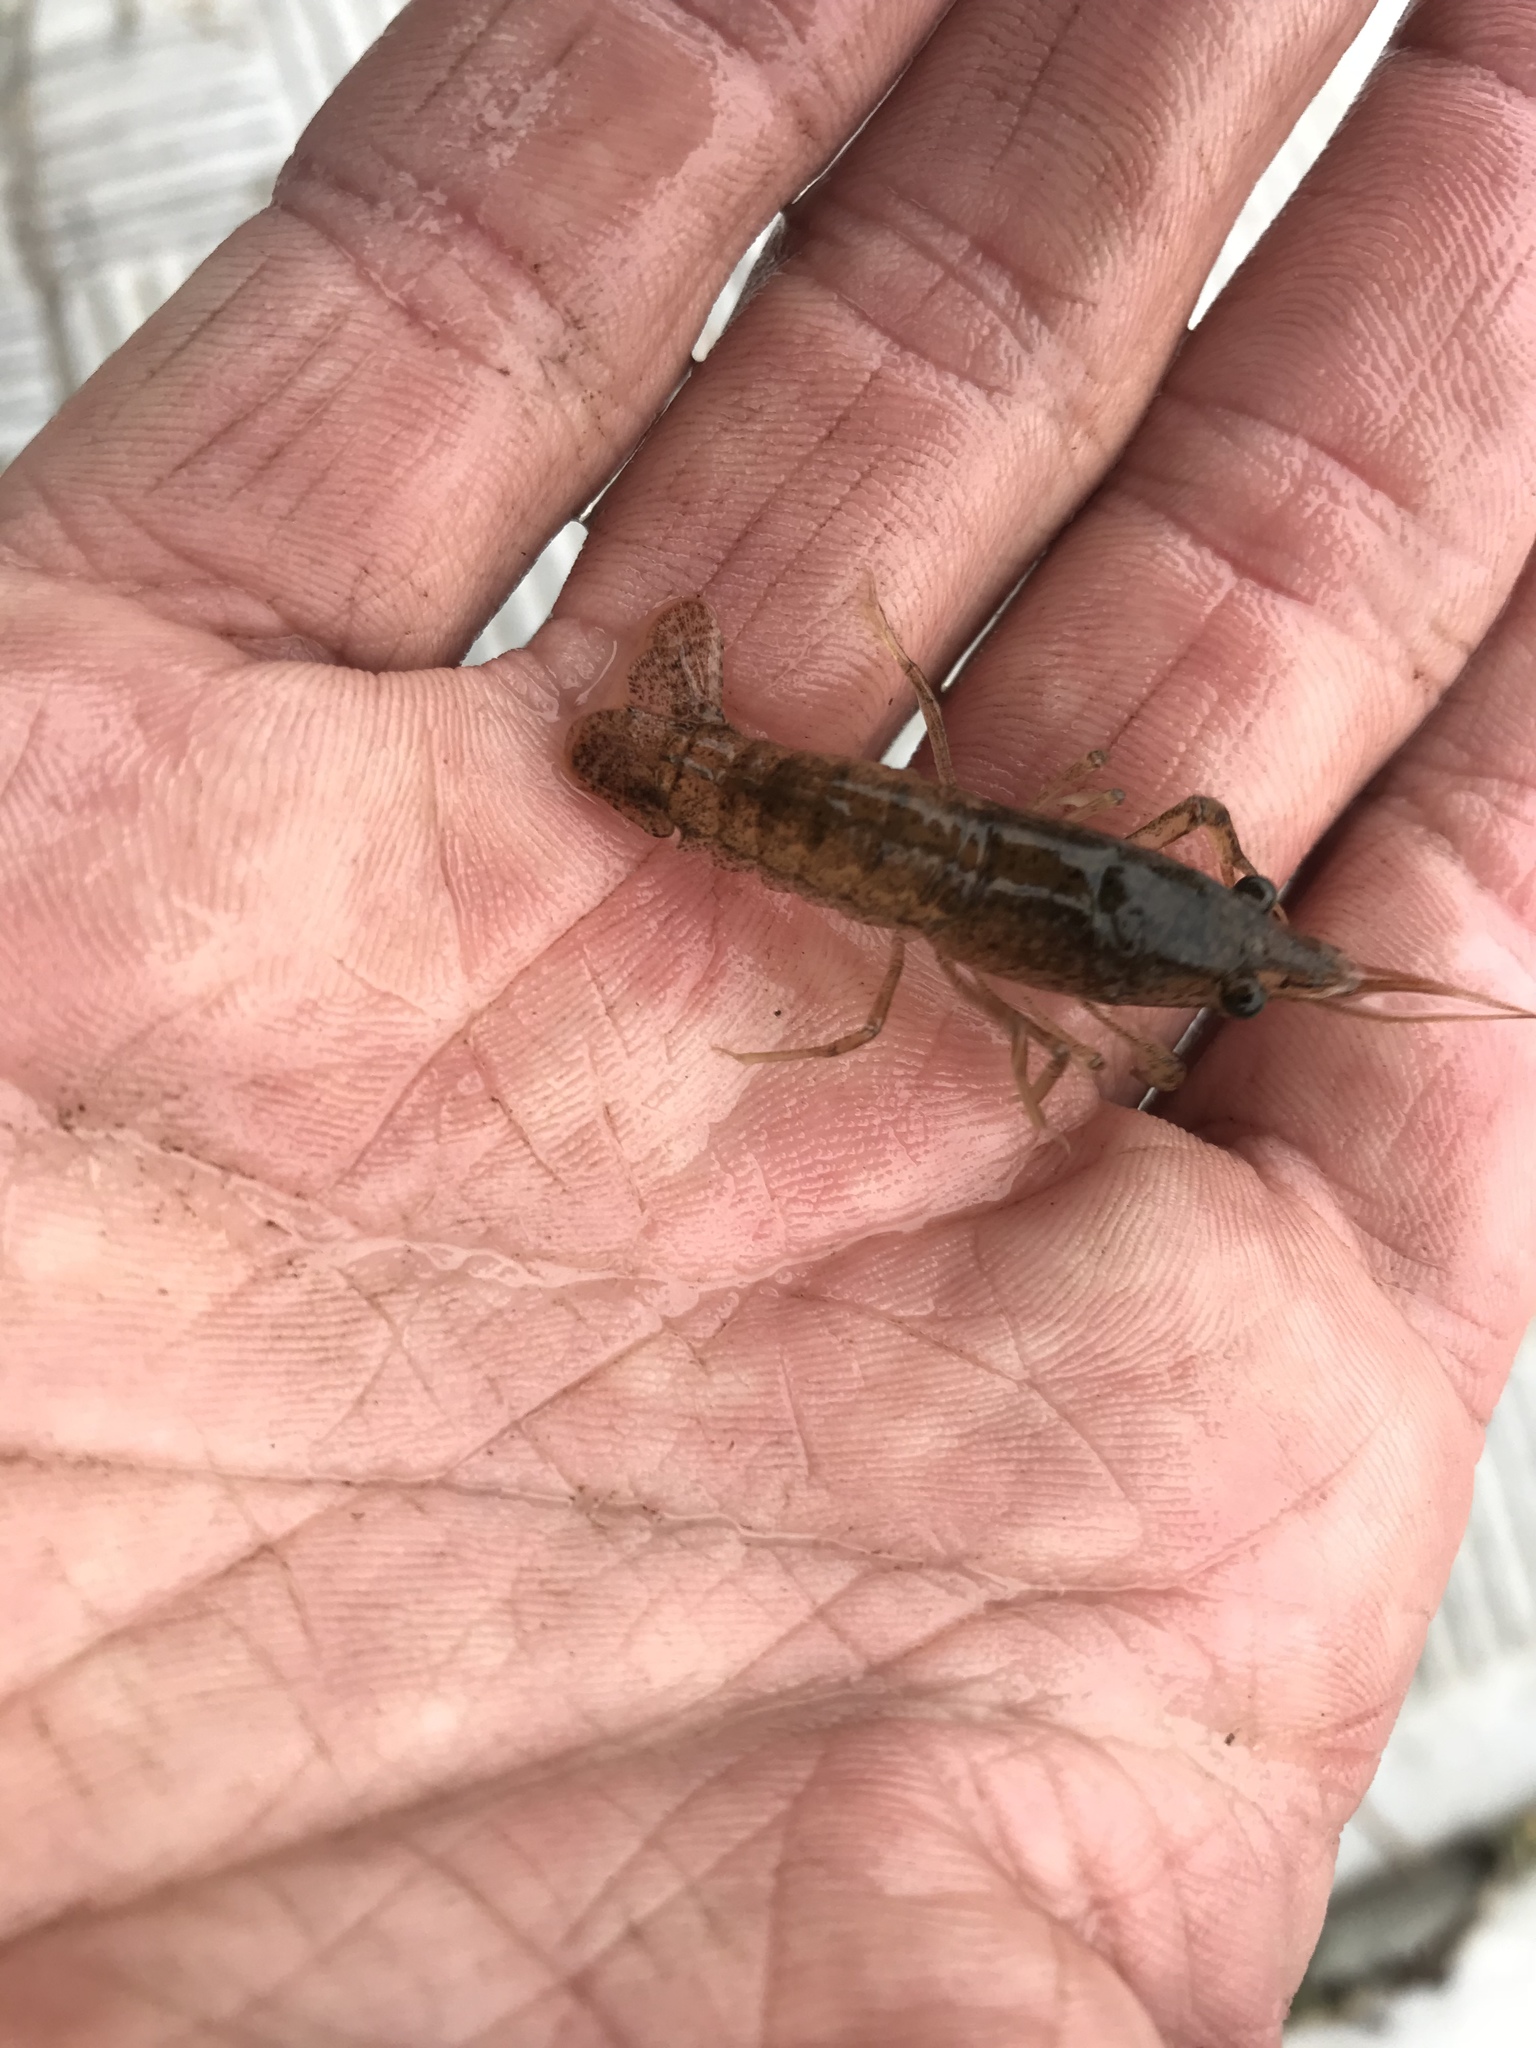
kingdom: Animalia
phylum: Arthropoda
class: Malacostraca
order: Decapoda
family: Cambaridae
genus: Procambarus
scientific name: Procambarus acutus
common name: White river crayfish
